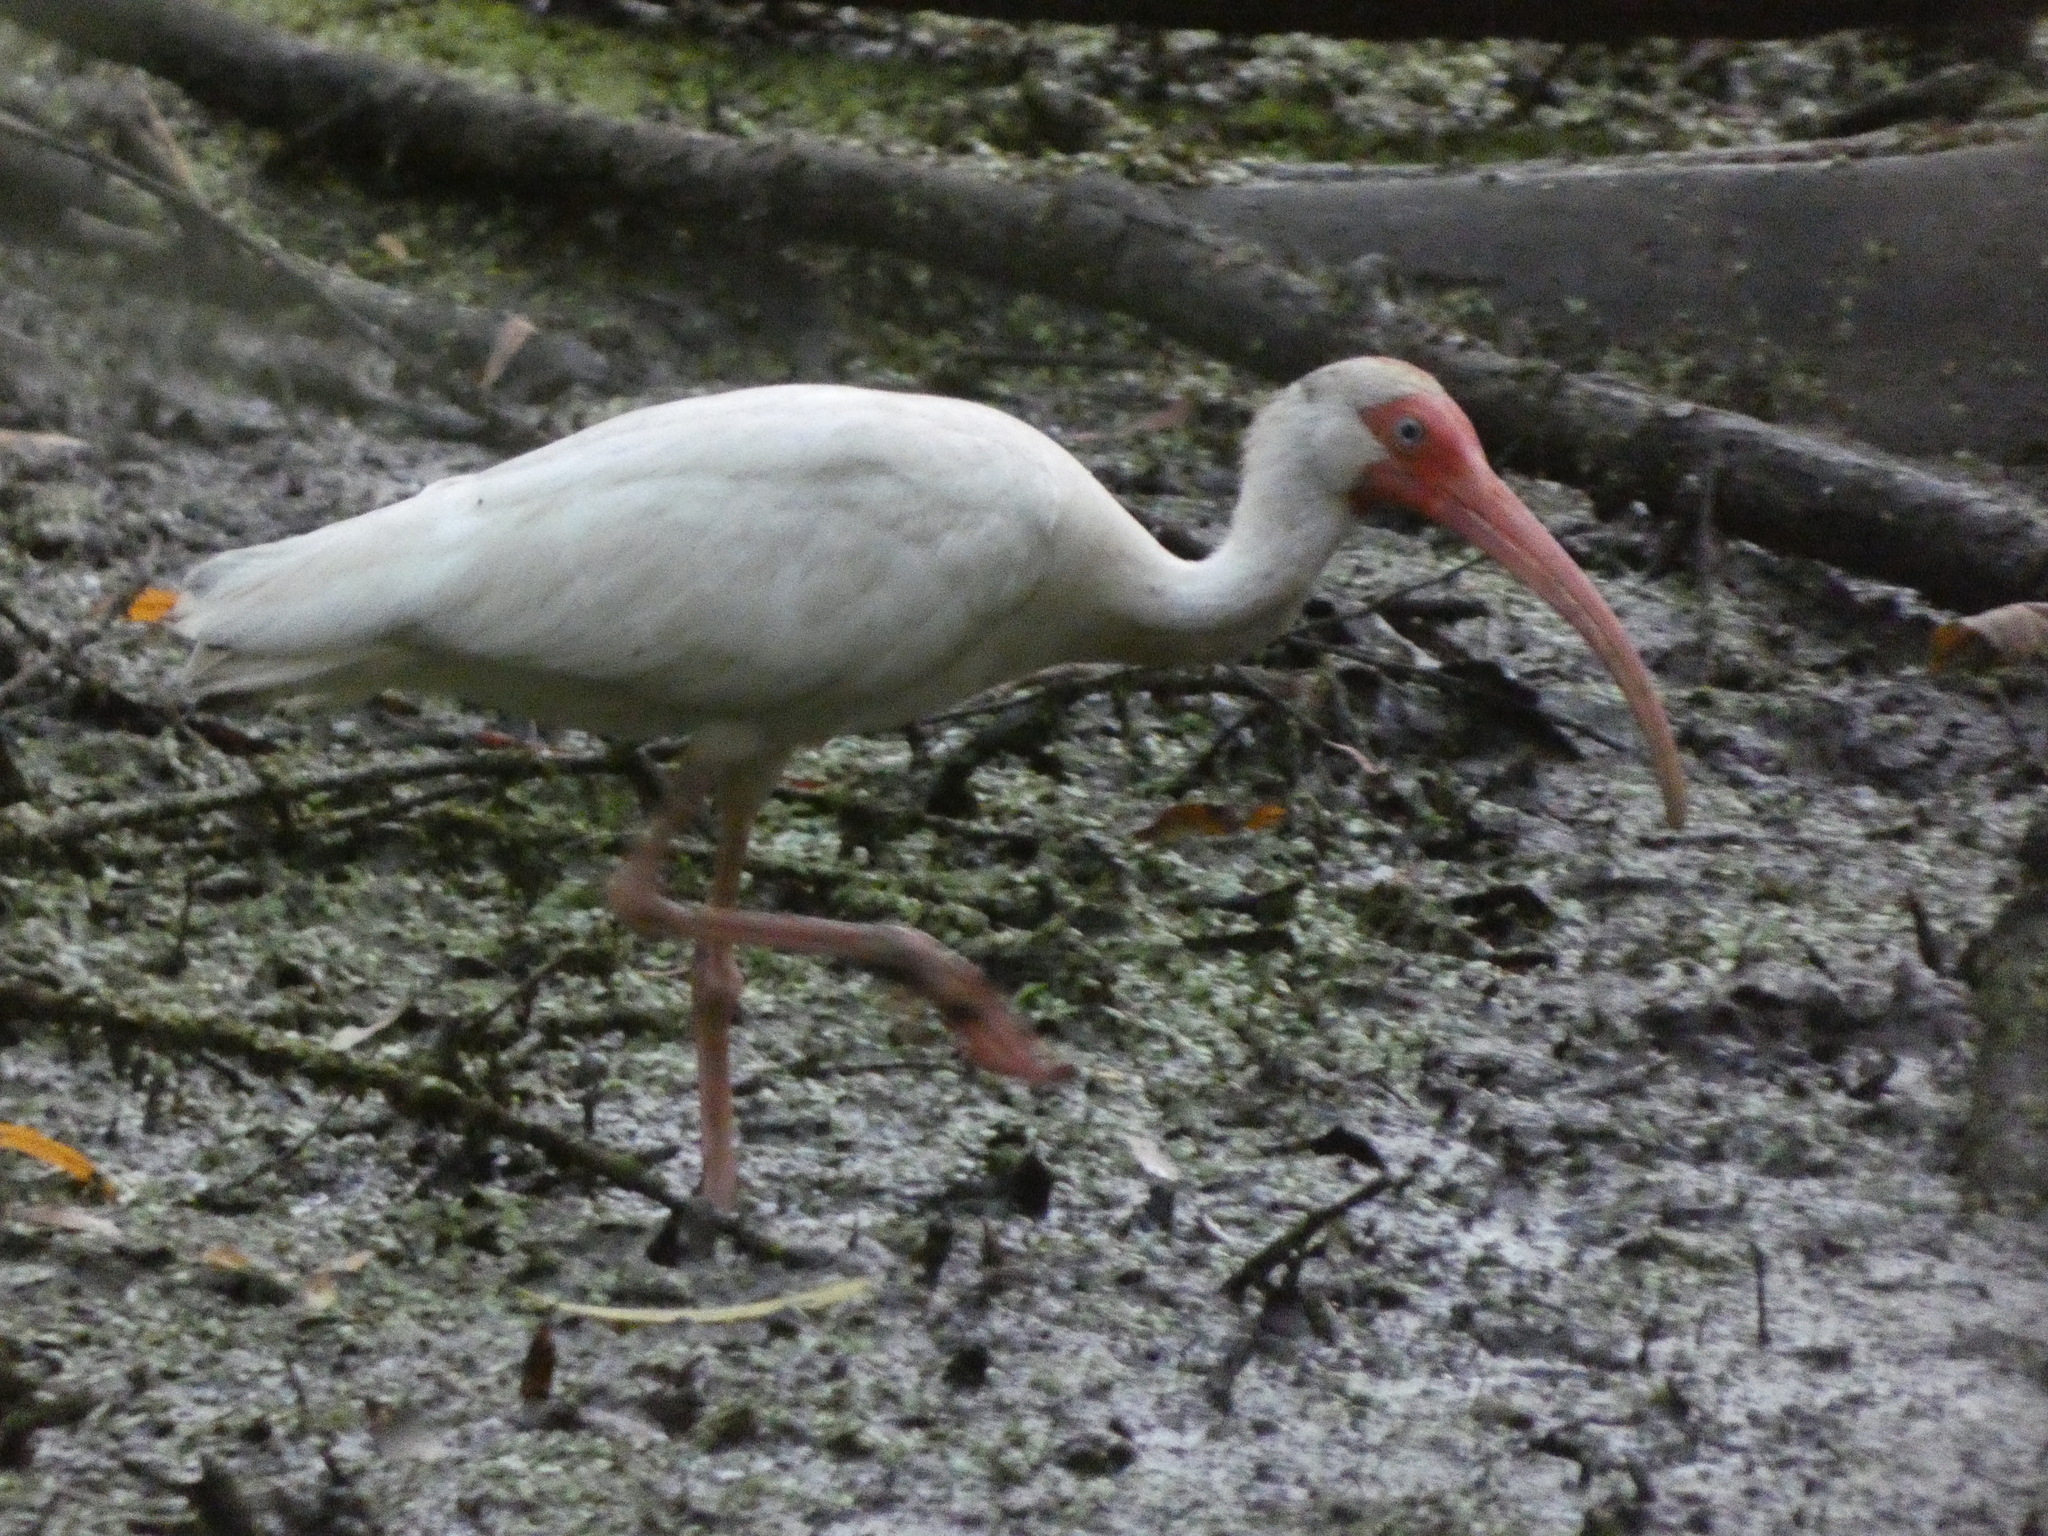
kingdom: Animalia
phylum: Chordata
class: Aves
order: Pelecaniformes
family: Threskiornithidae
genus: Eudocimus
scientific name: Eudocimus albus
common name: White ibis
